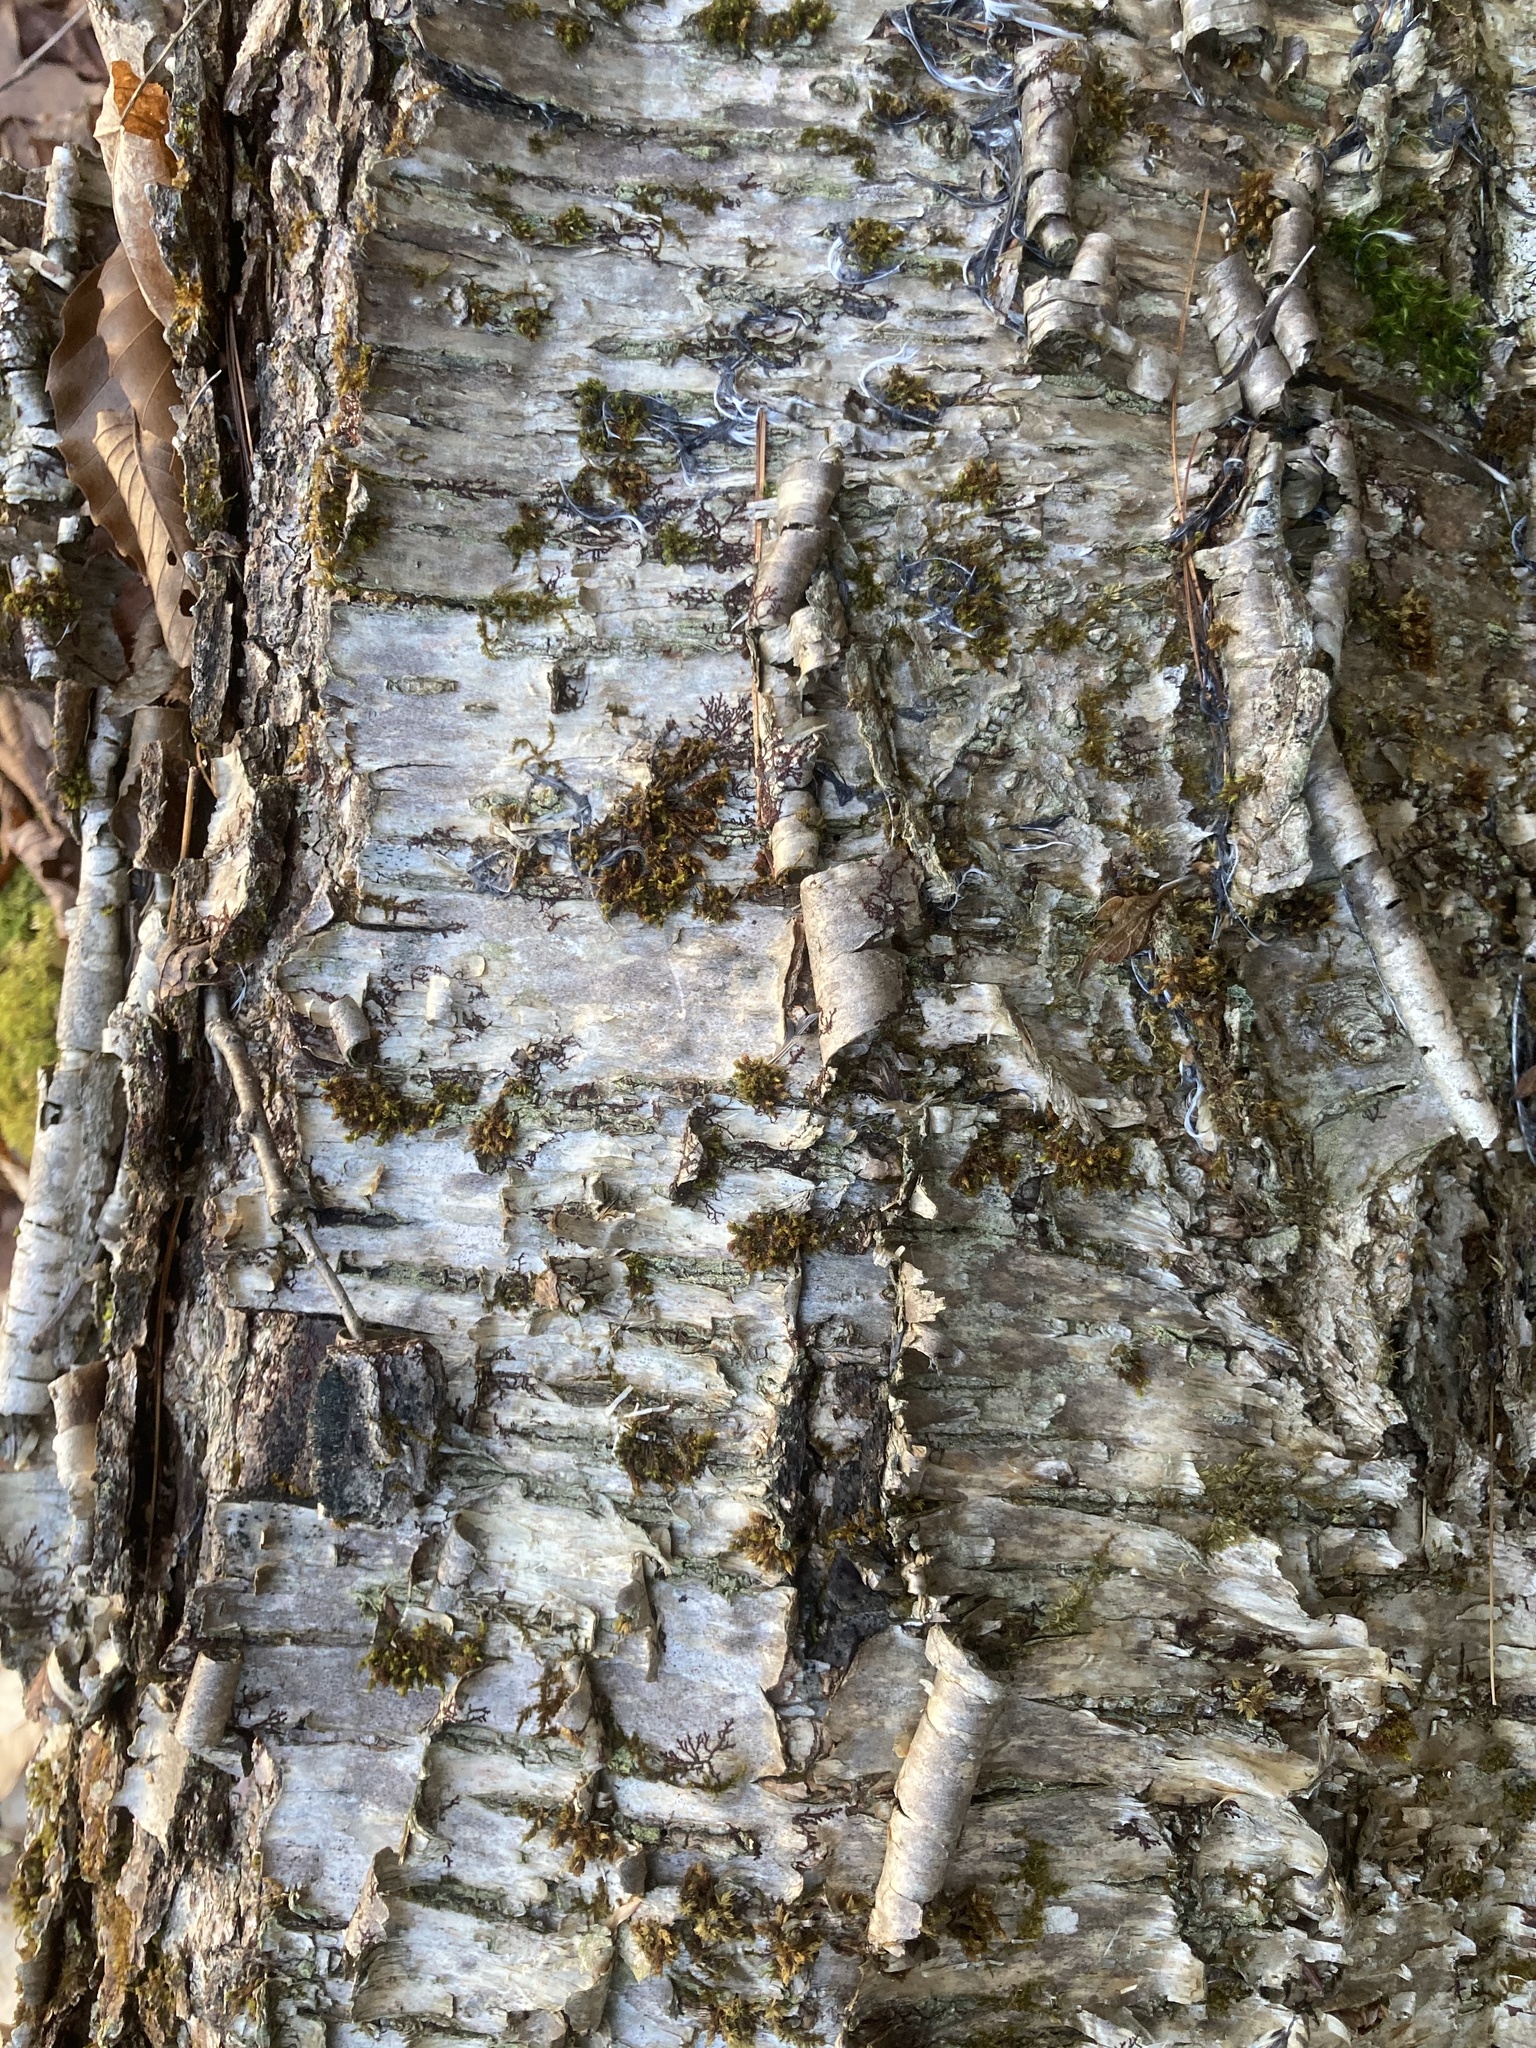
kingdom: Plantae
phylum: Tracheophyta
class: Magnoliopsida
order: Fagales
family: Betulaceae
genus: Betula
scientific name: Betula alleghaniensis
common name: Yellow birch
